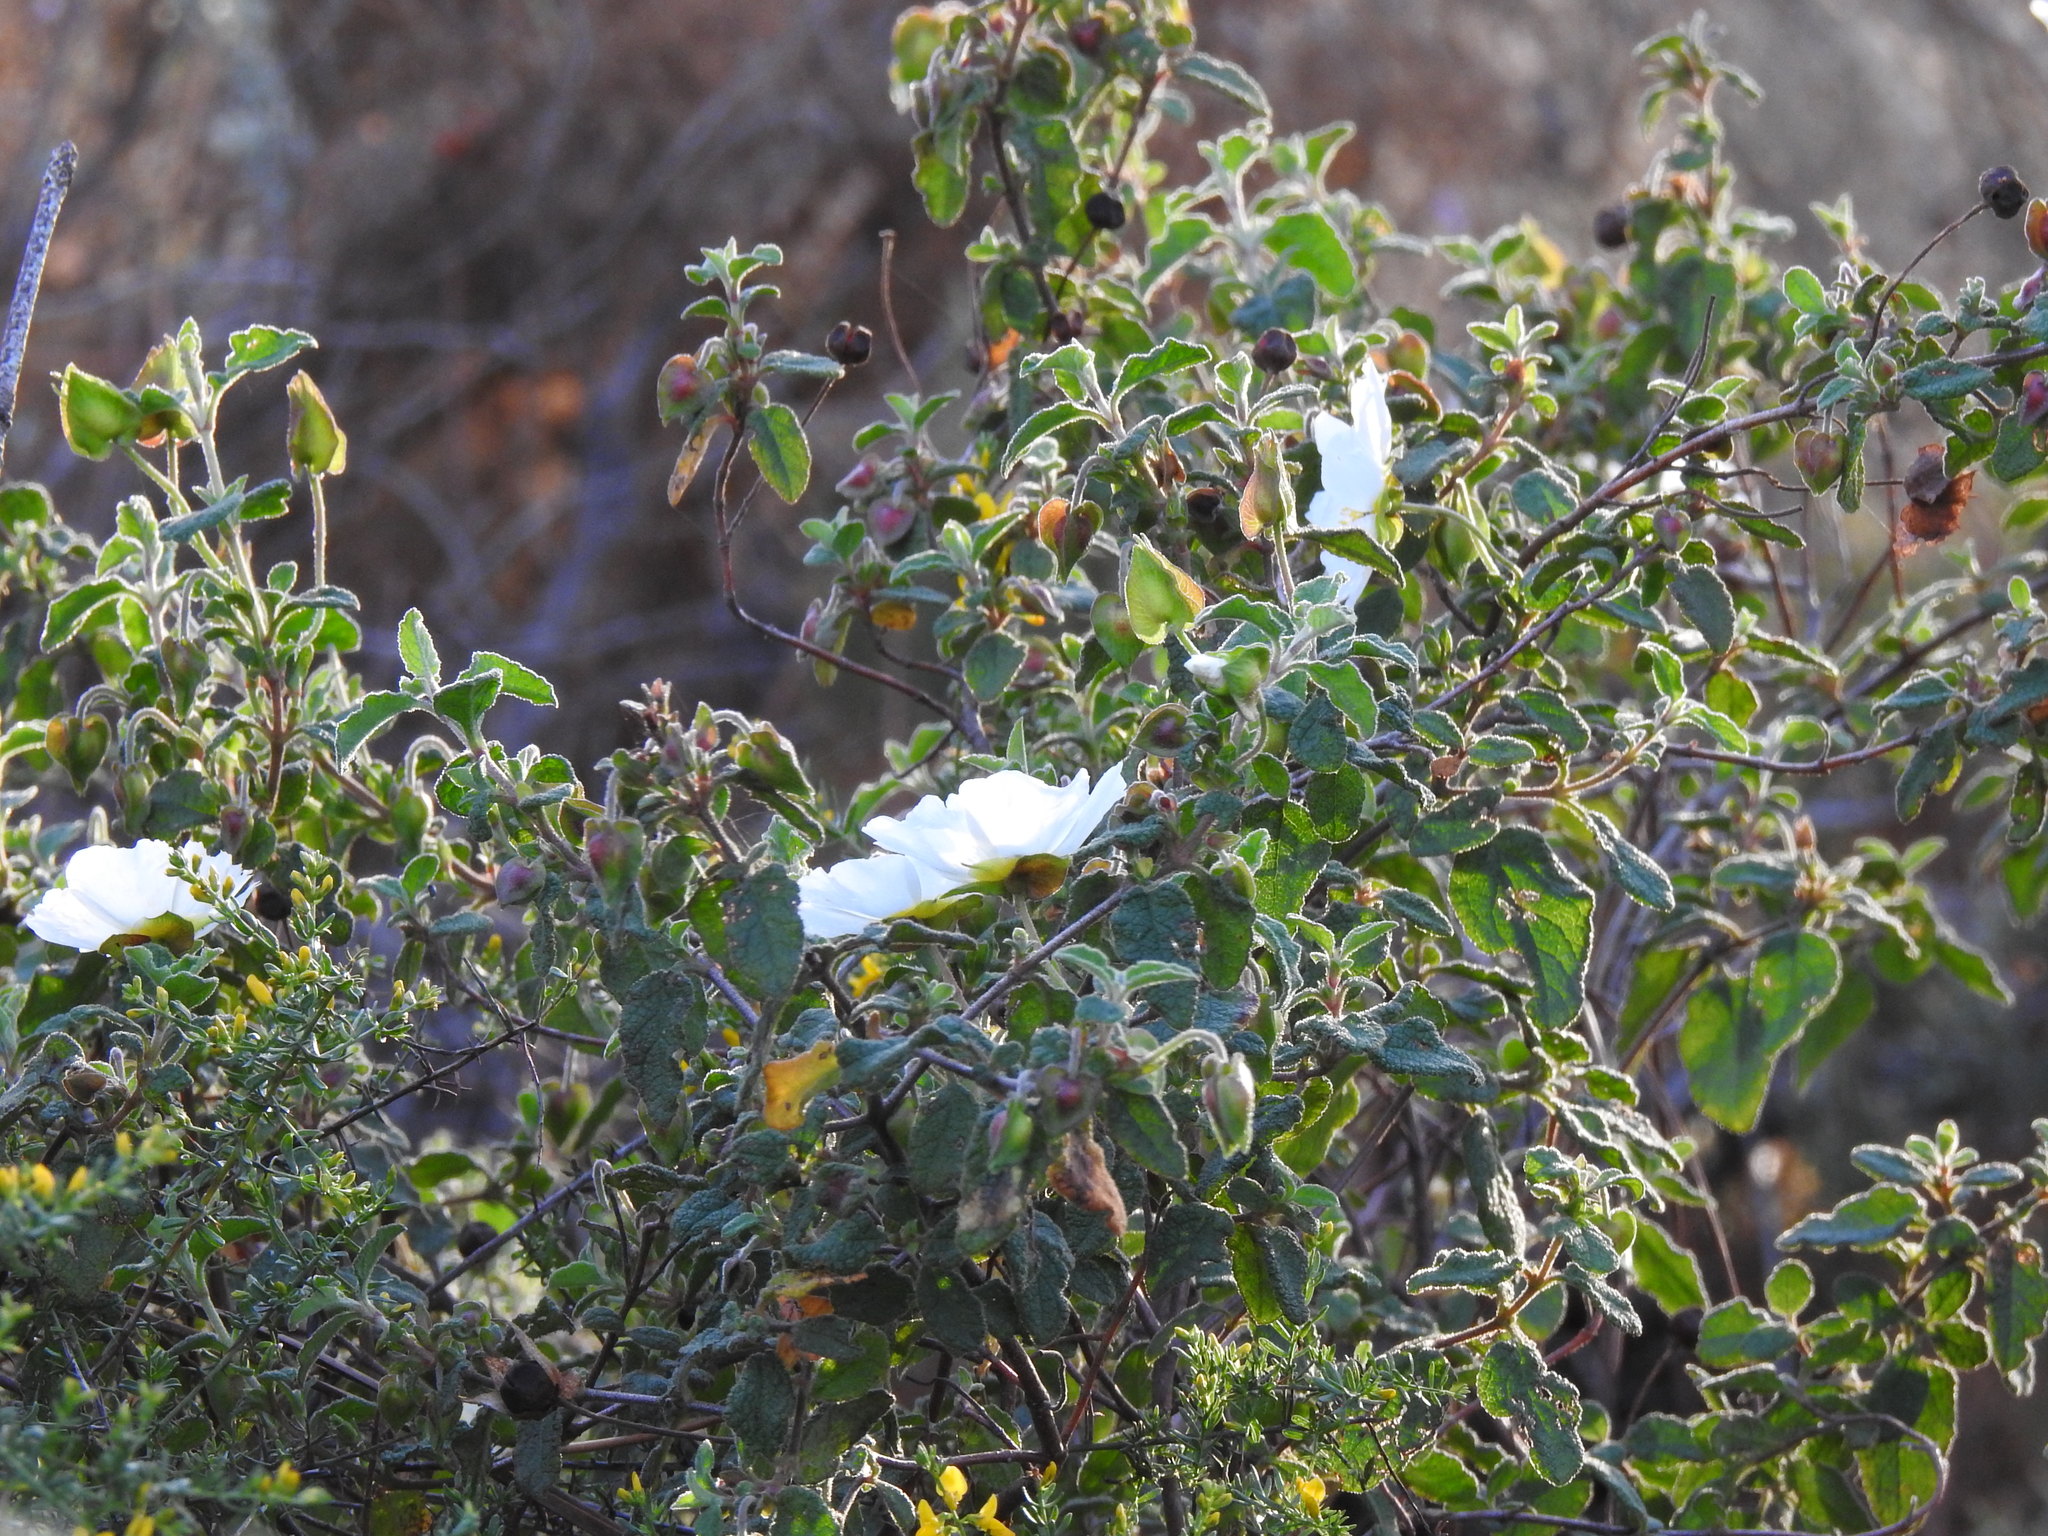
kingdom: Plantae
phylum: Tracheophyta
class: Magnoliopsida
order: Malvales
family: Cistaceae
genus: Cistus
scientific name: Cistus salviifolius
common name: Salvia cistus
